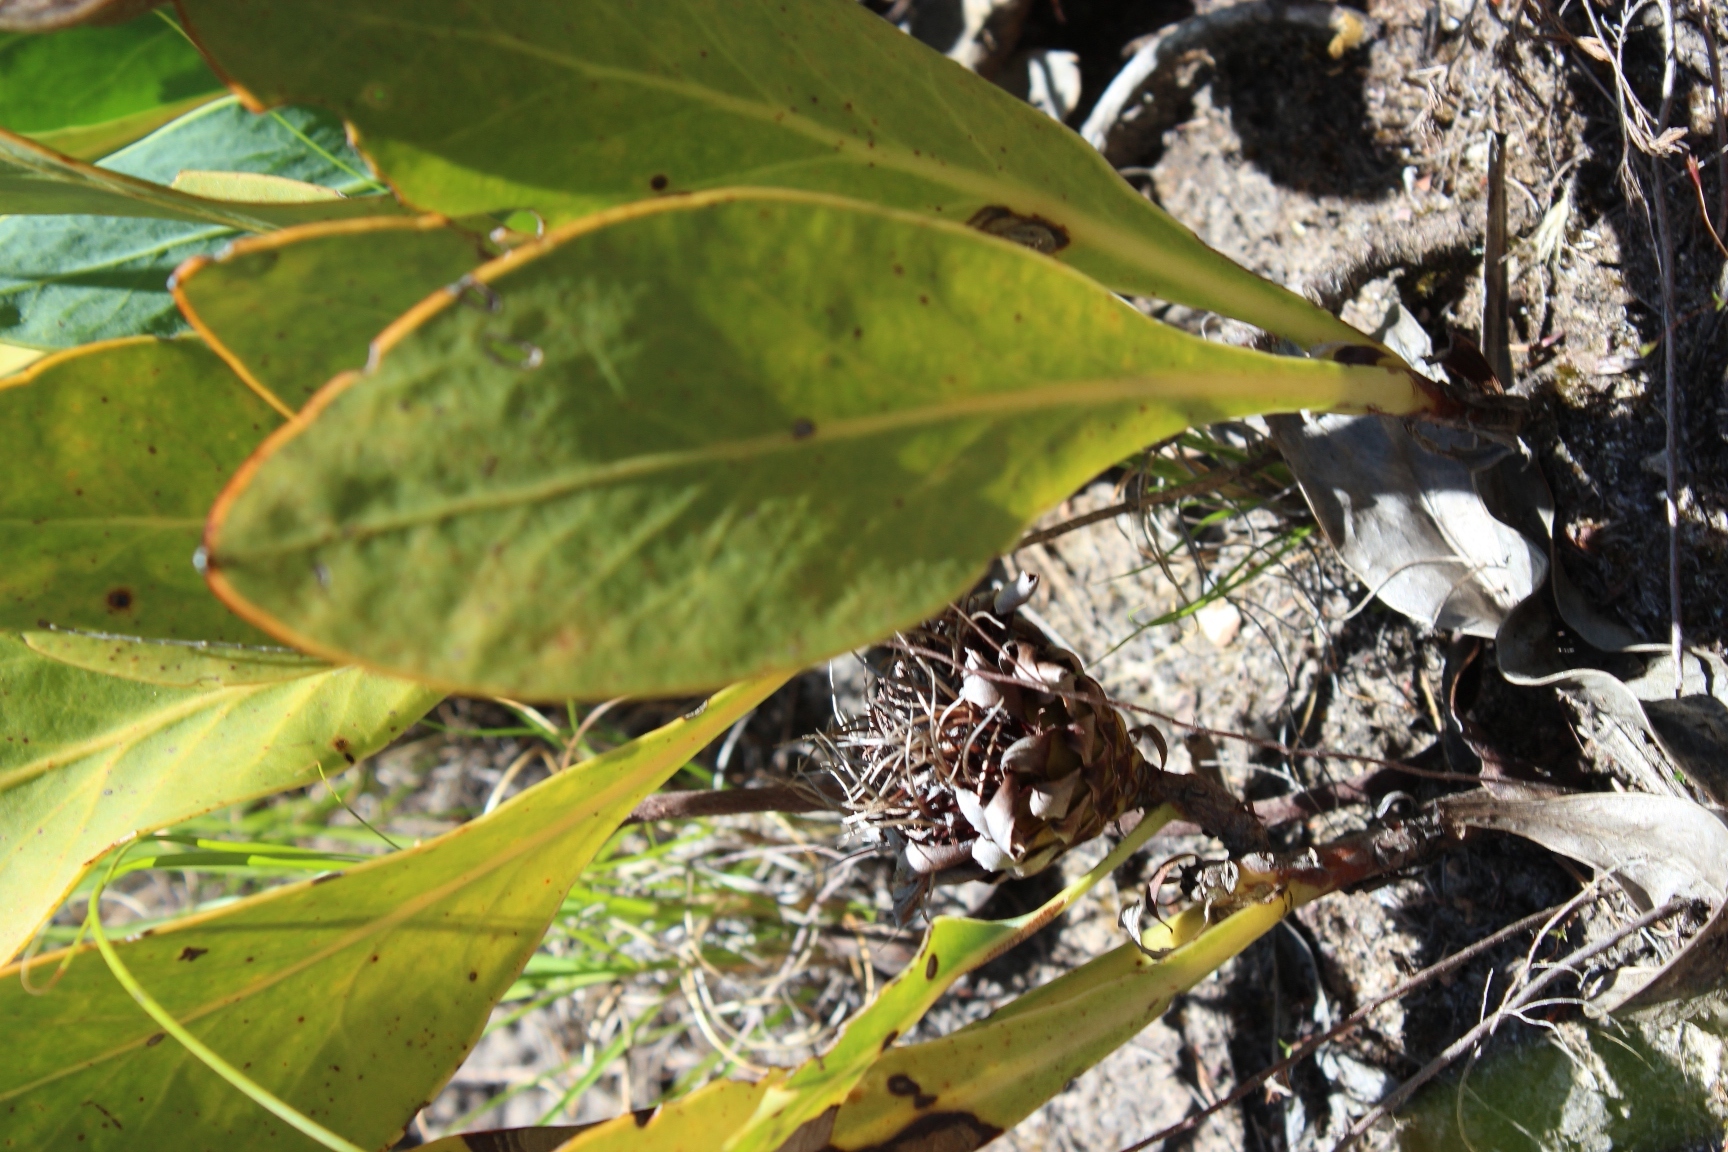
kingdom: Plantae
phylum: Tracheophyta
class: Magnoliopsida
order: Proteales
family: Proteaceae
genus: Protea
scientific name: Protea acaulos
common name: Common ground sugarbush
